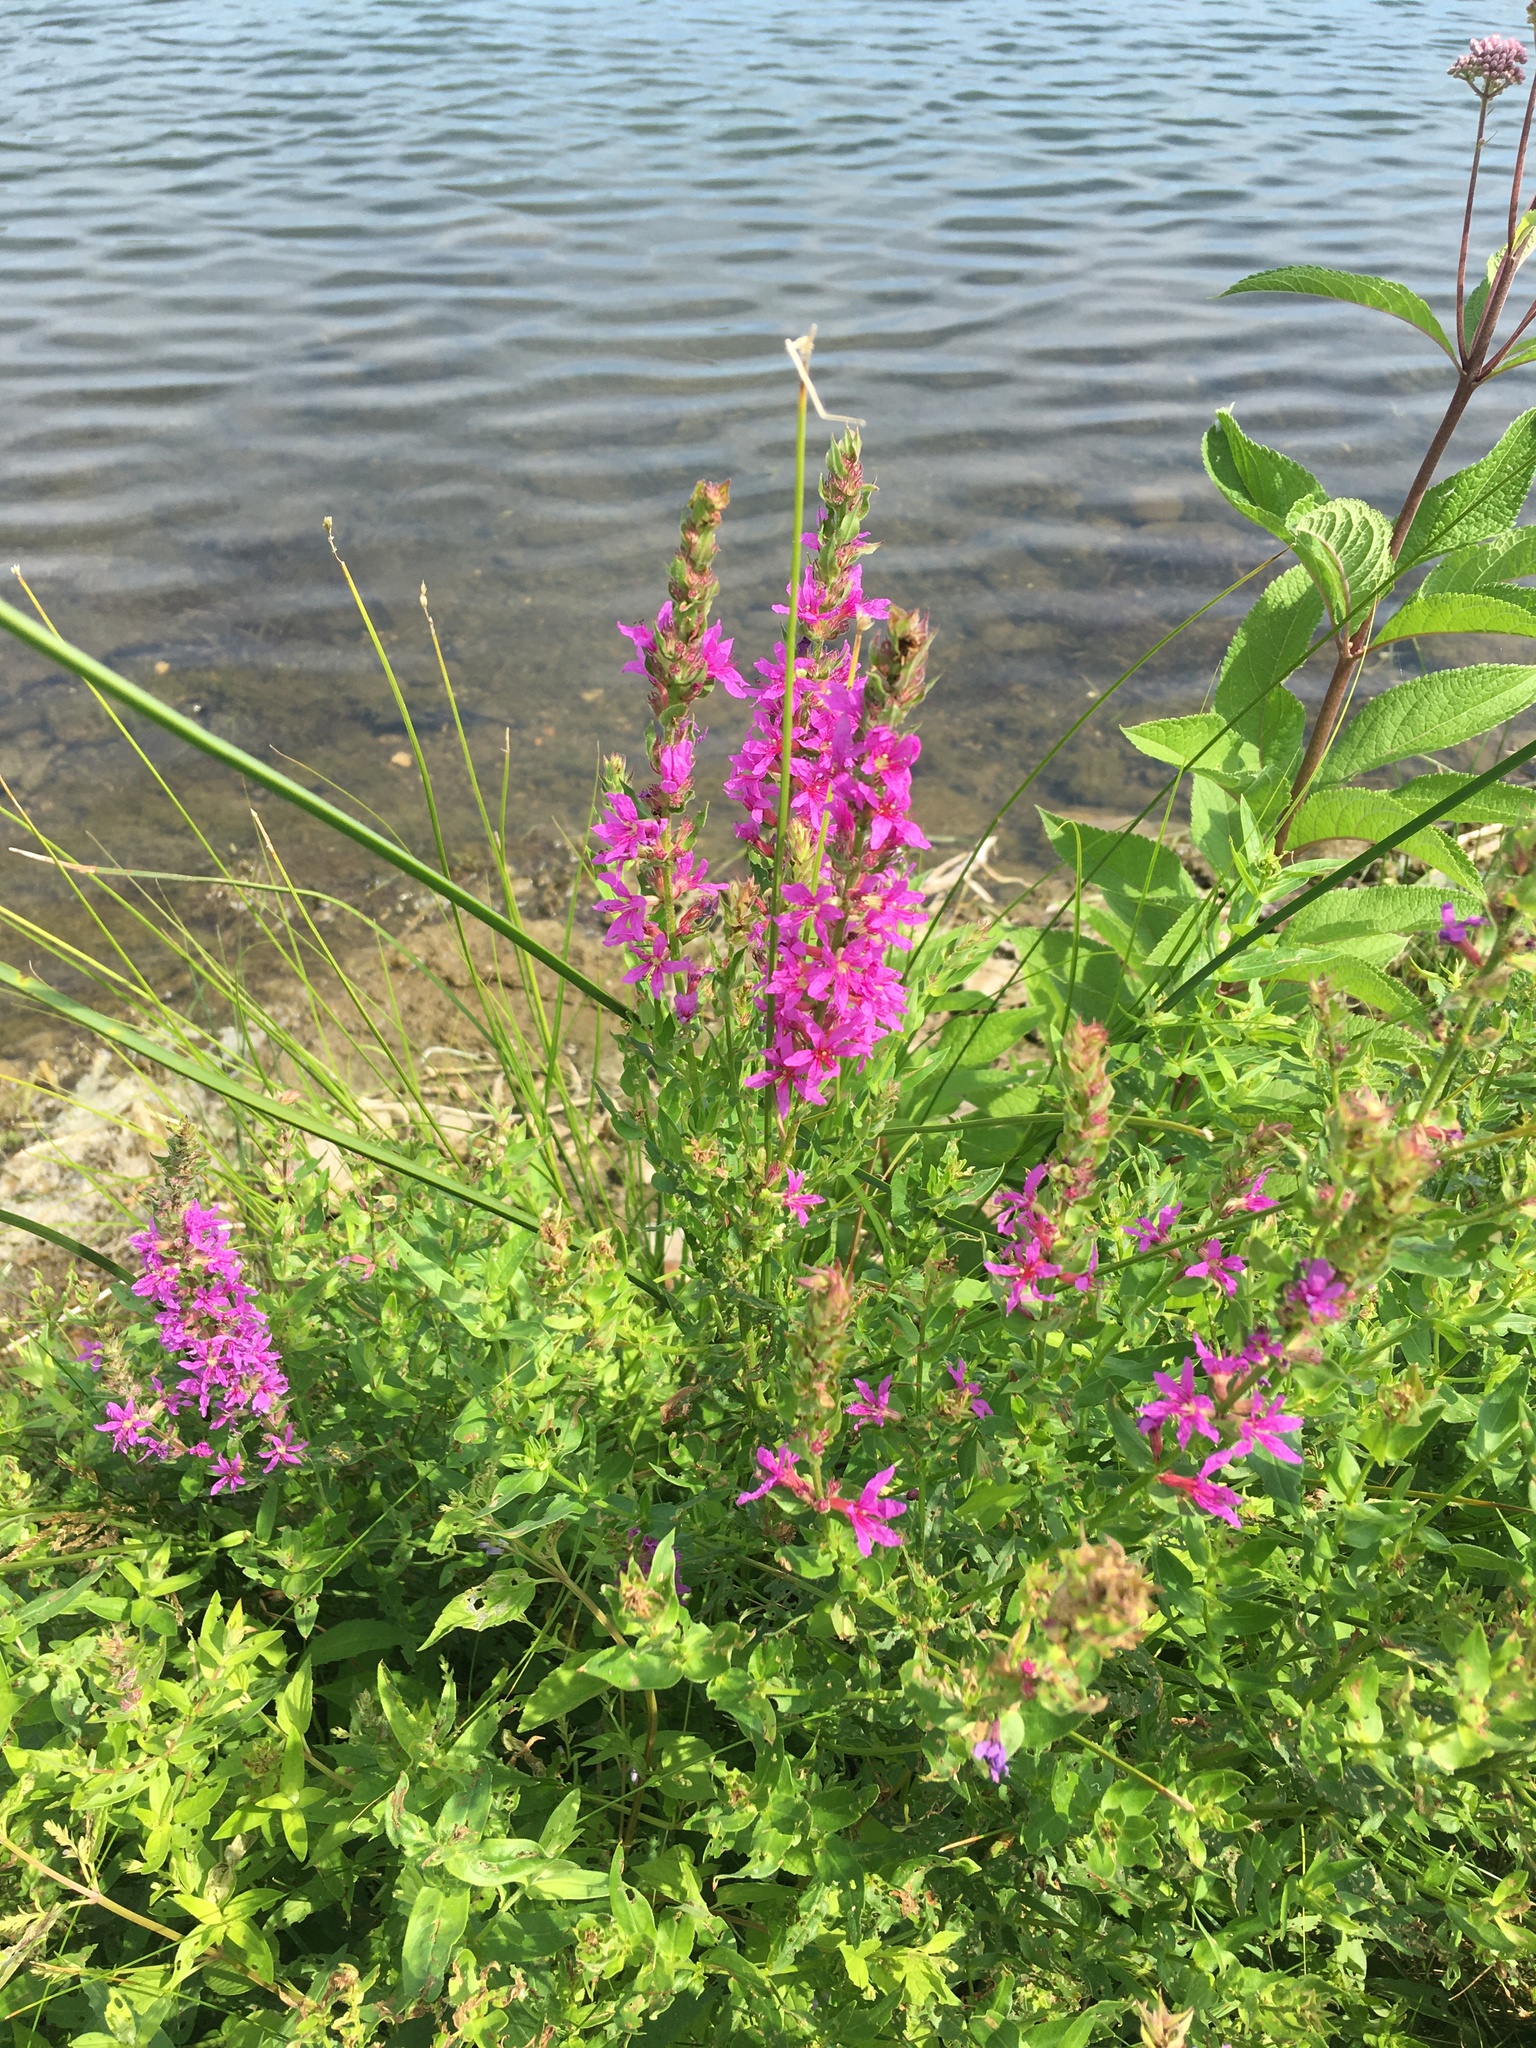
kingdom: Plantae
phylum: Tracheophyta
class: Magnoliopsida
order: Myrtales
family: Lythraceae
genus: Lythrum
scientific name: Lythrum salicaria
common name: Purple loosestrife
